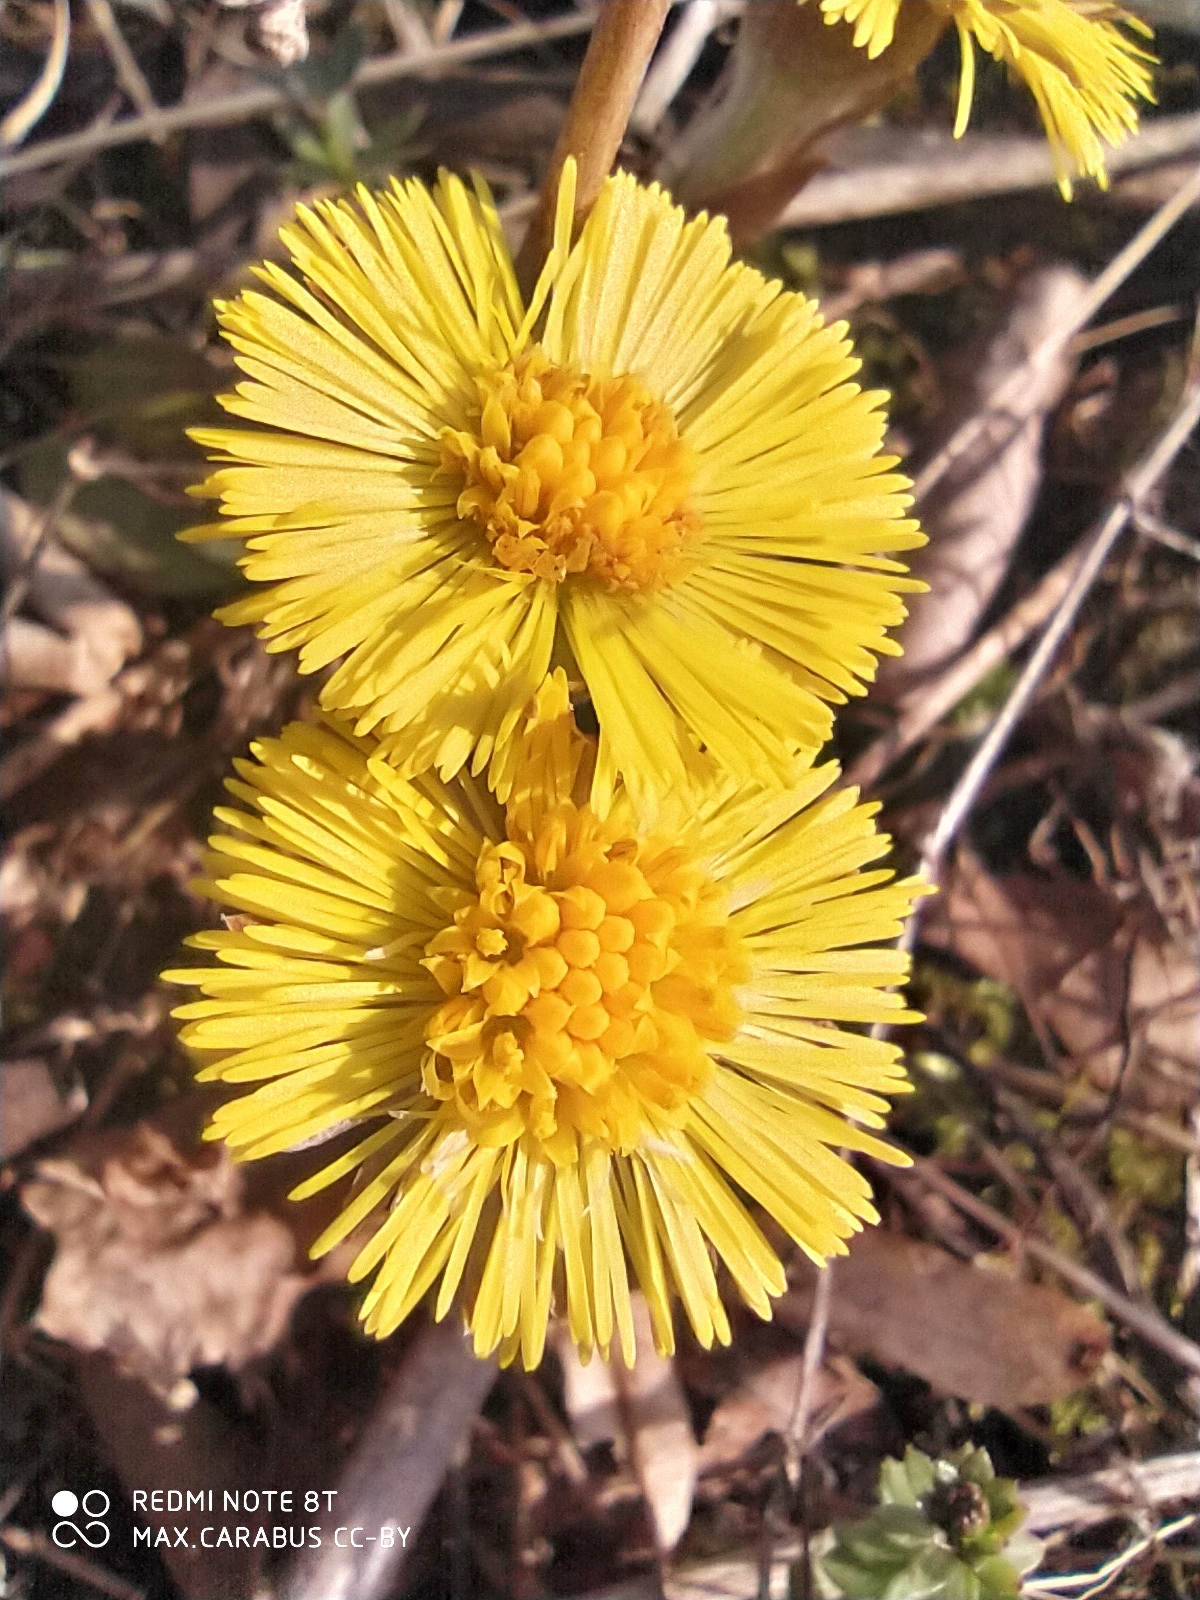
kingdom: Plantae
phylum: Tracheophyta
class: Magnoliopsida
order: Asterales
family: Asteraceae
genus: Tussilago
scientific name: Tussilago farfara
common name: Coltsfoot
